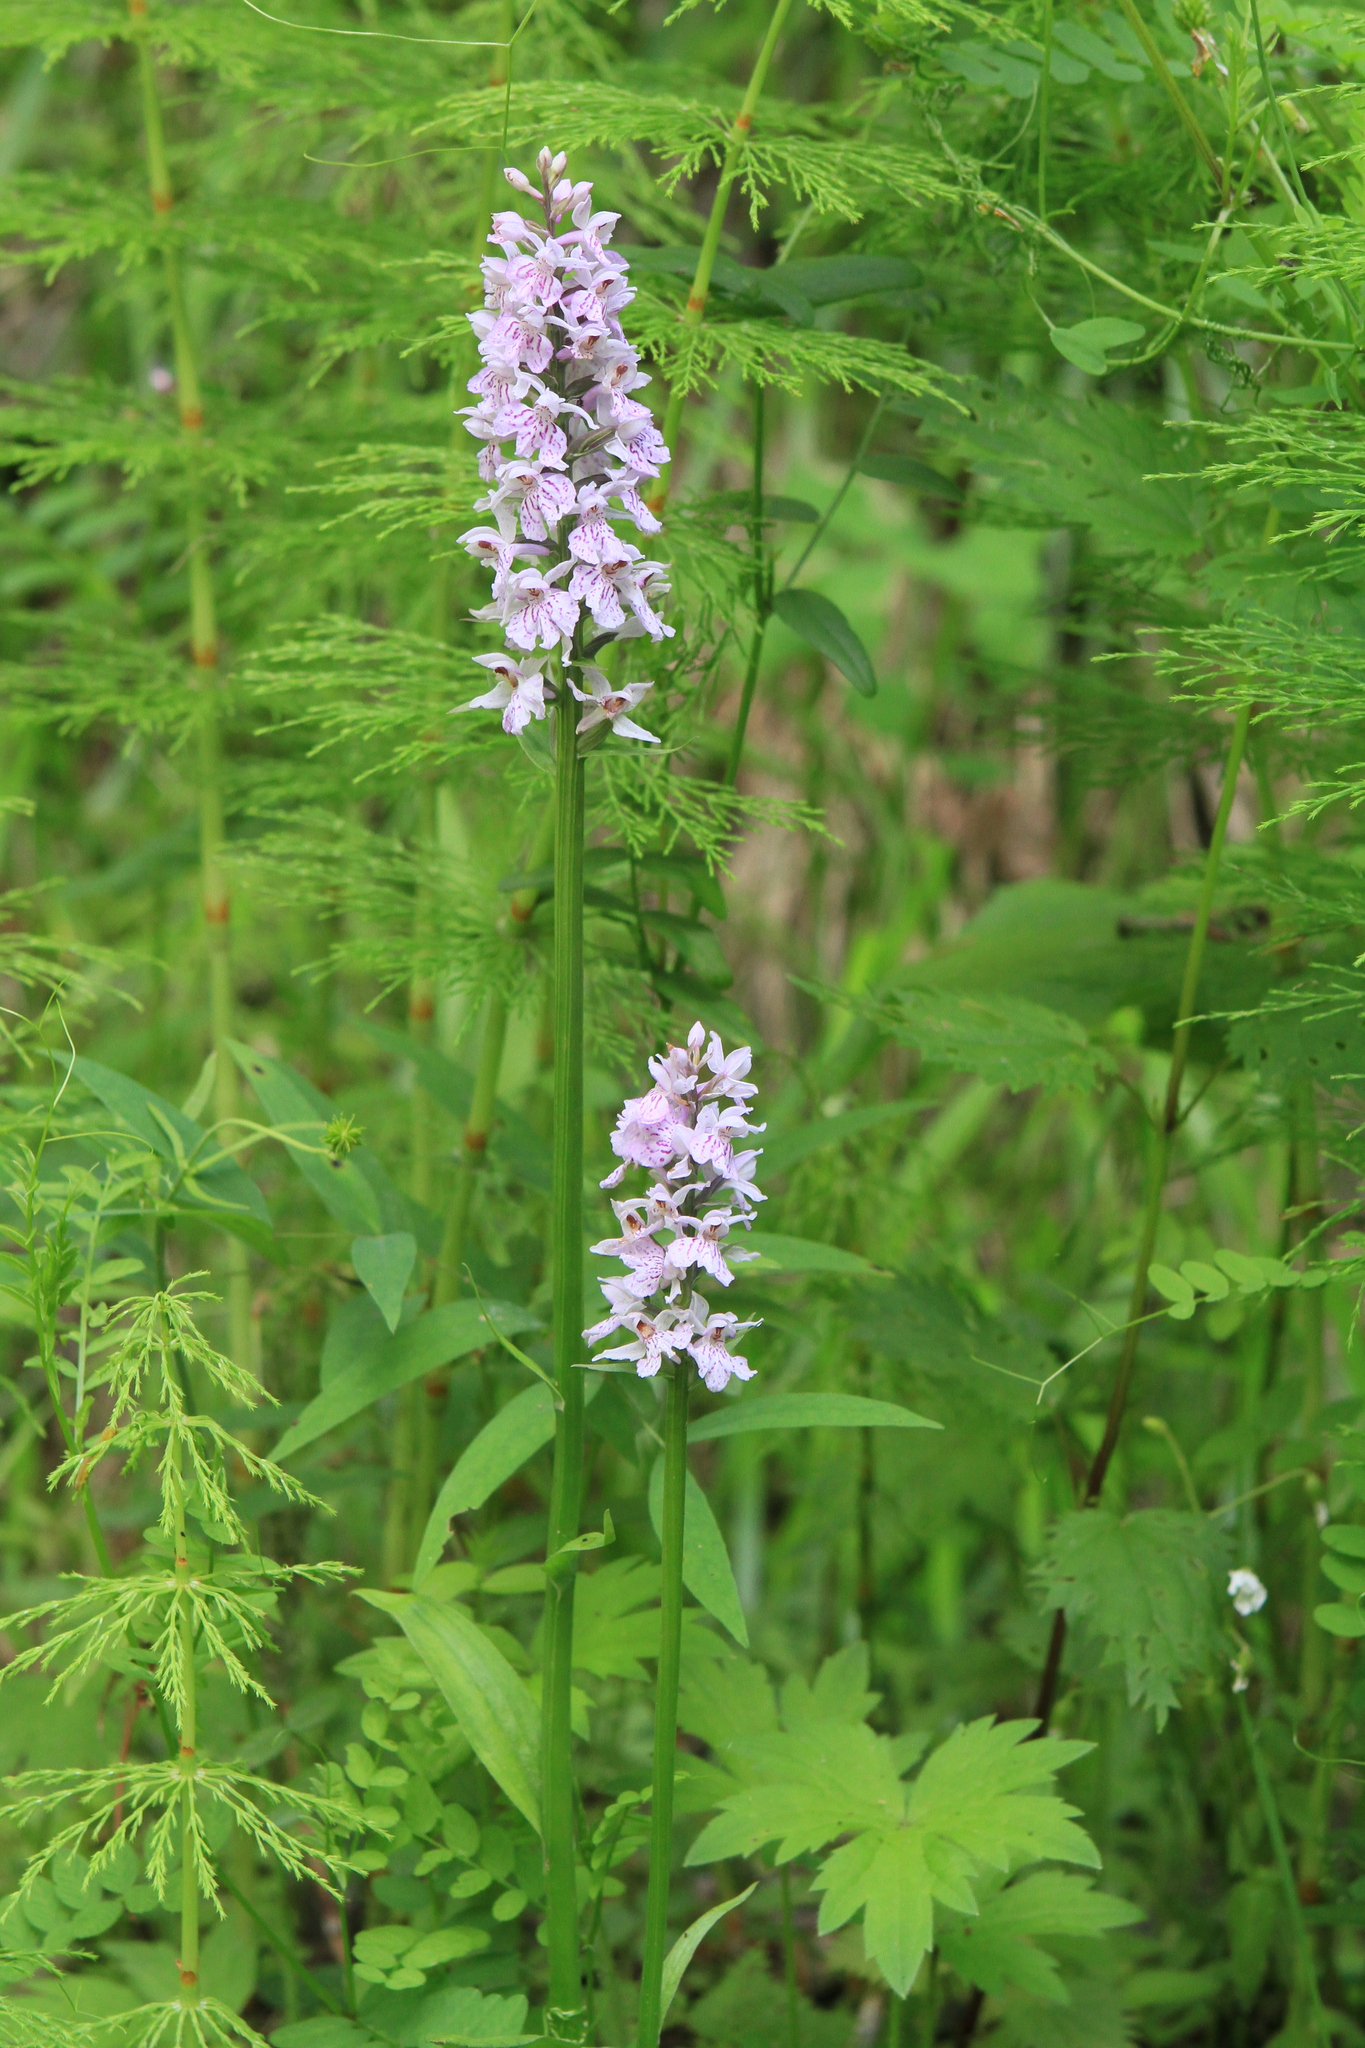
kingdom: Plantae
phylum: Tracheophyta
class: Liliopsida
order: Asparagales
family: Orchidaceae
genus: Dactylorhiza
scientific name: Dactylorhiza maculata
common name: Heath spotted-orchid
